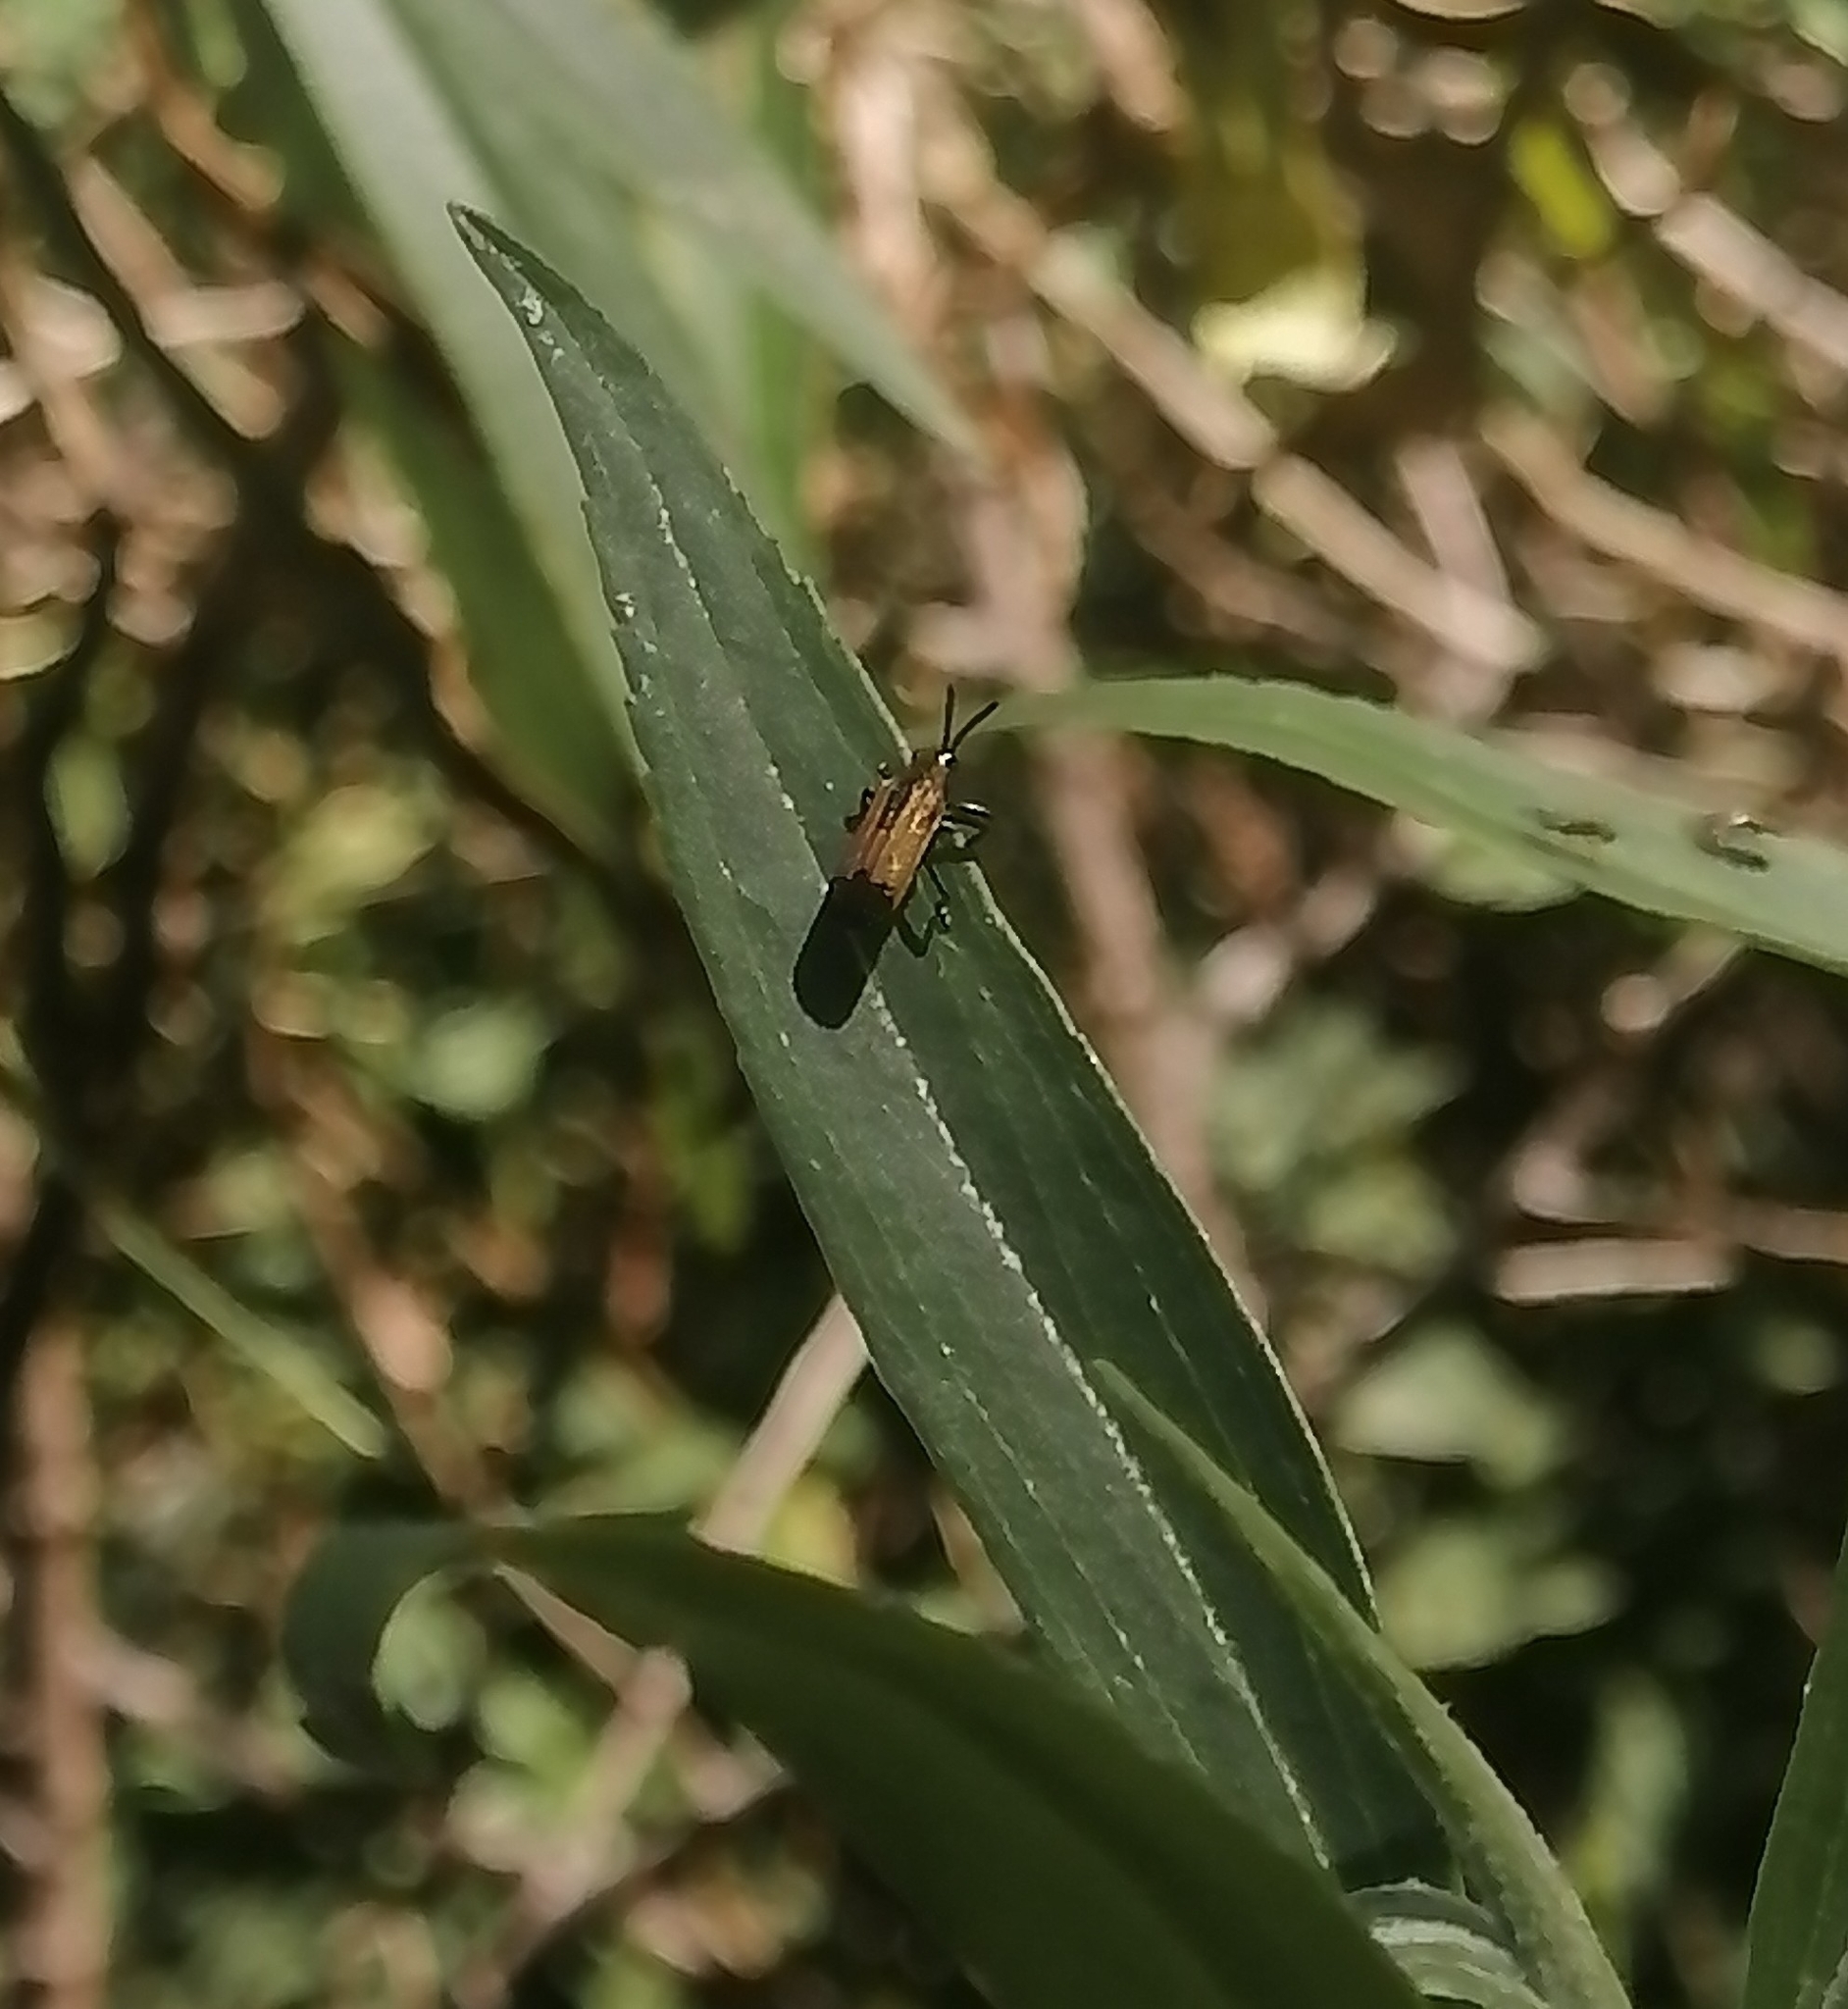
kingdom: Animalia
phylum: Arthropoda
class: Insecta
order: Coleoptera
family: Chrysomelidae
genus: Pentispa
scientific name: Pentispa melanura
